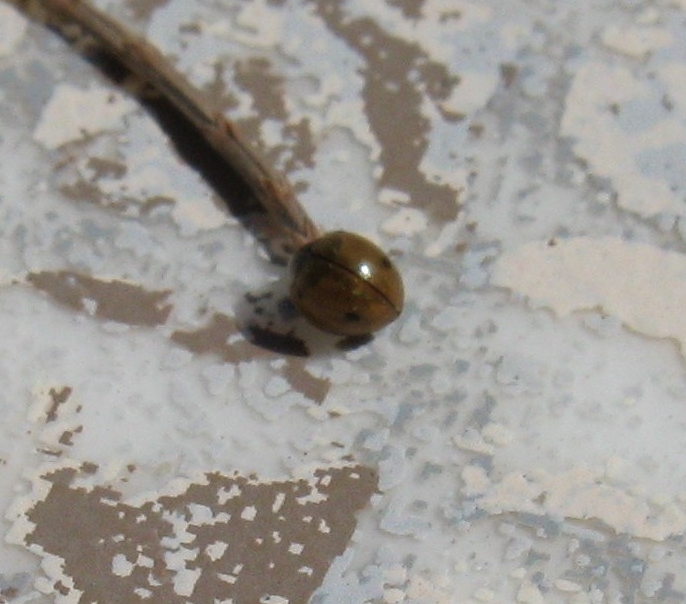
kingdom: Animalia
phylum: Arthropoda
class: Insecta
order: Coleoptera
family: Coccinellidae
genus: Exochomus
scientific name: Exochomus
